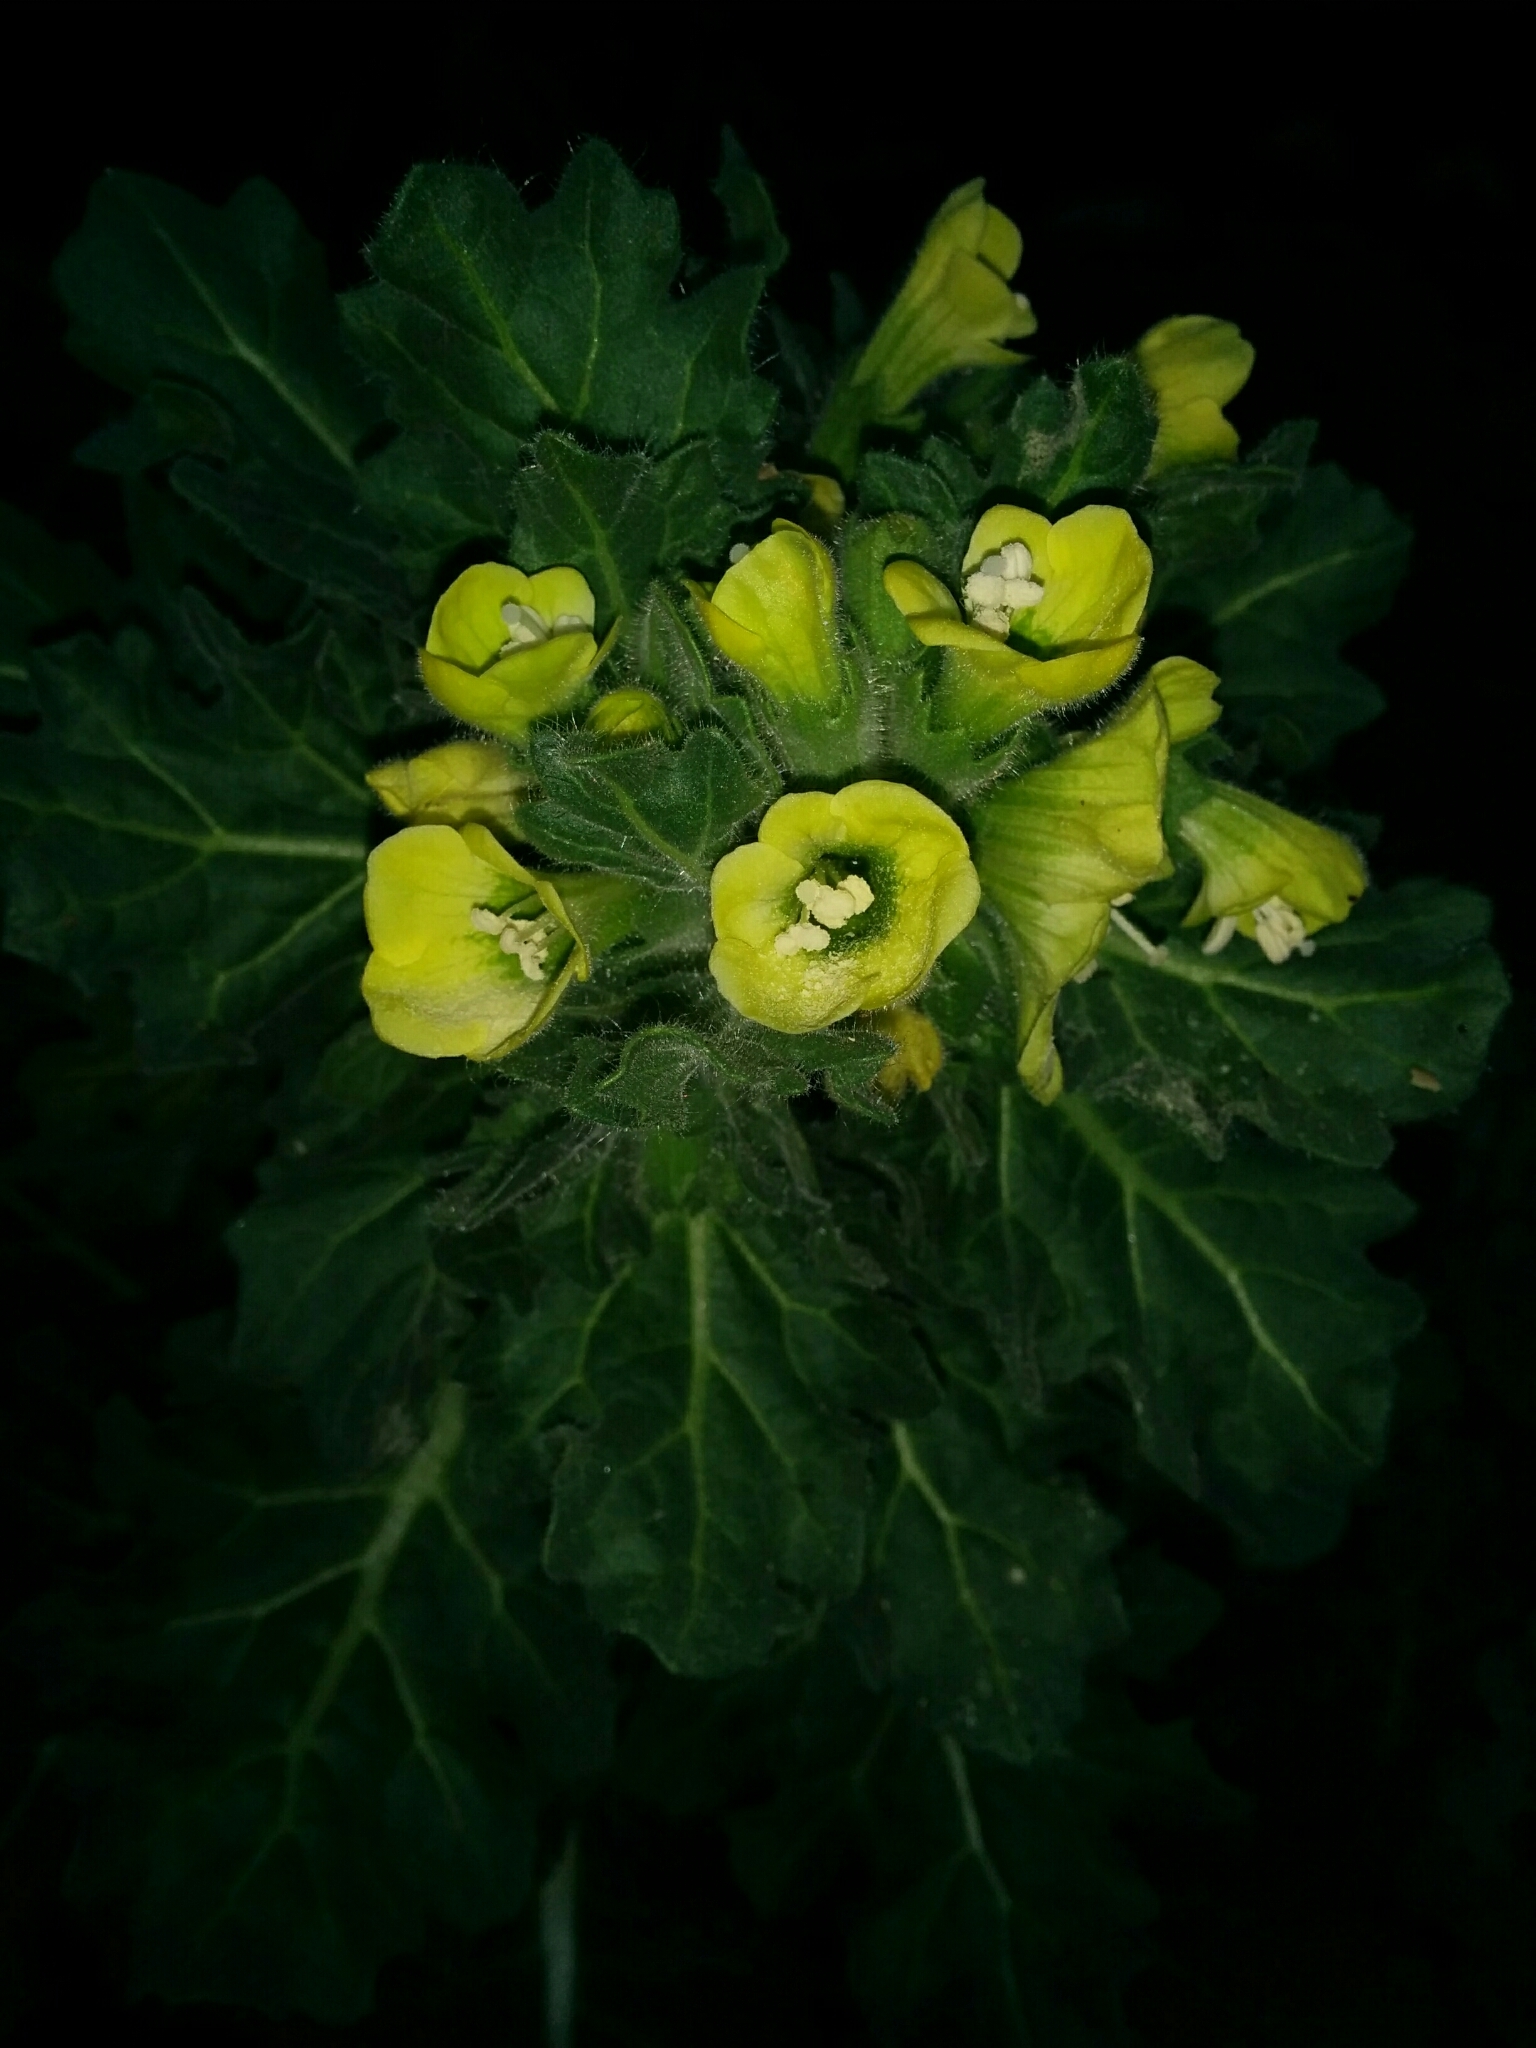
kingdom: Plantae
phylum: Tracheophyta
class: Magnoliopsida
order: Solanales
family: Solanaceae
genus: Hyoscyamus
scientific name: Hyoscyamus albus
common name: White henbane
